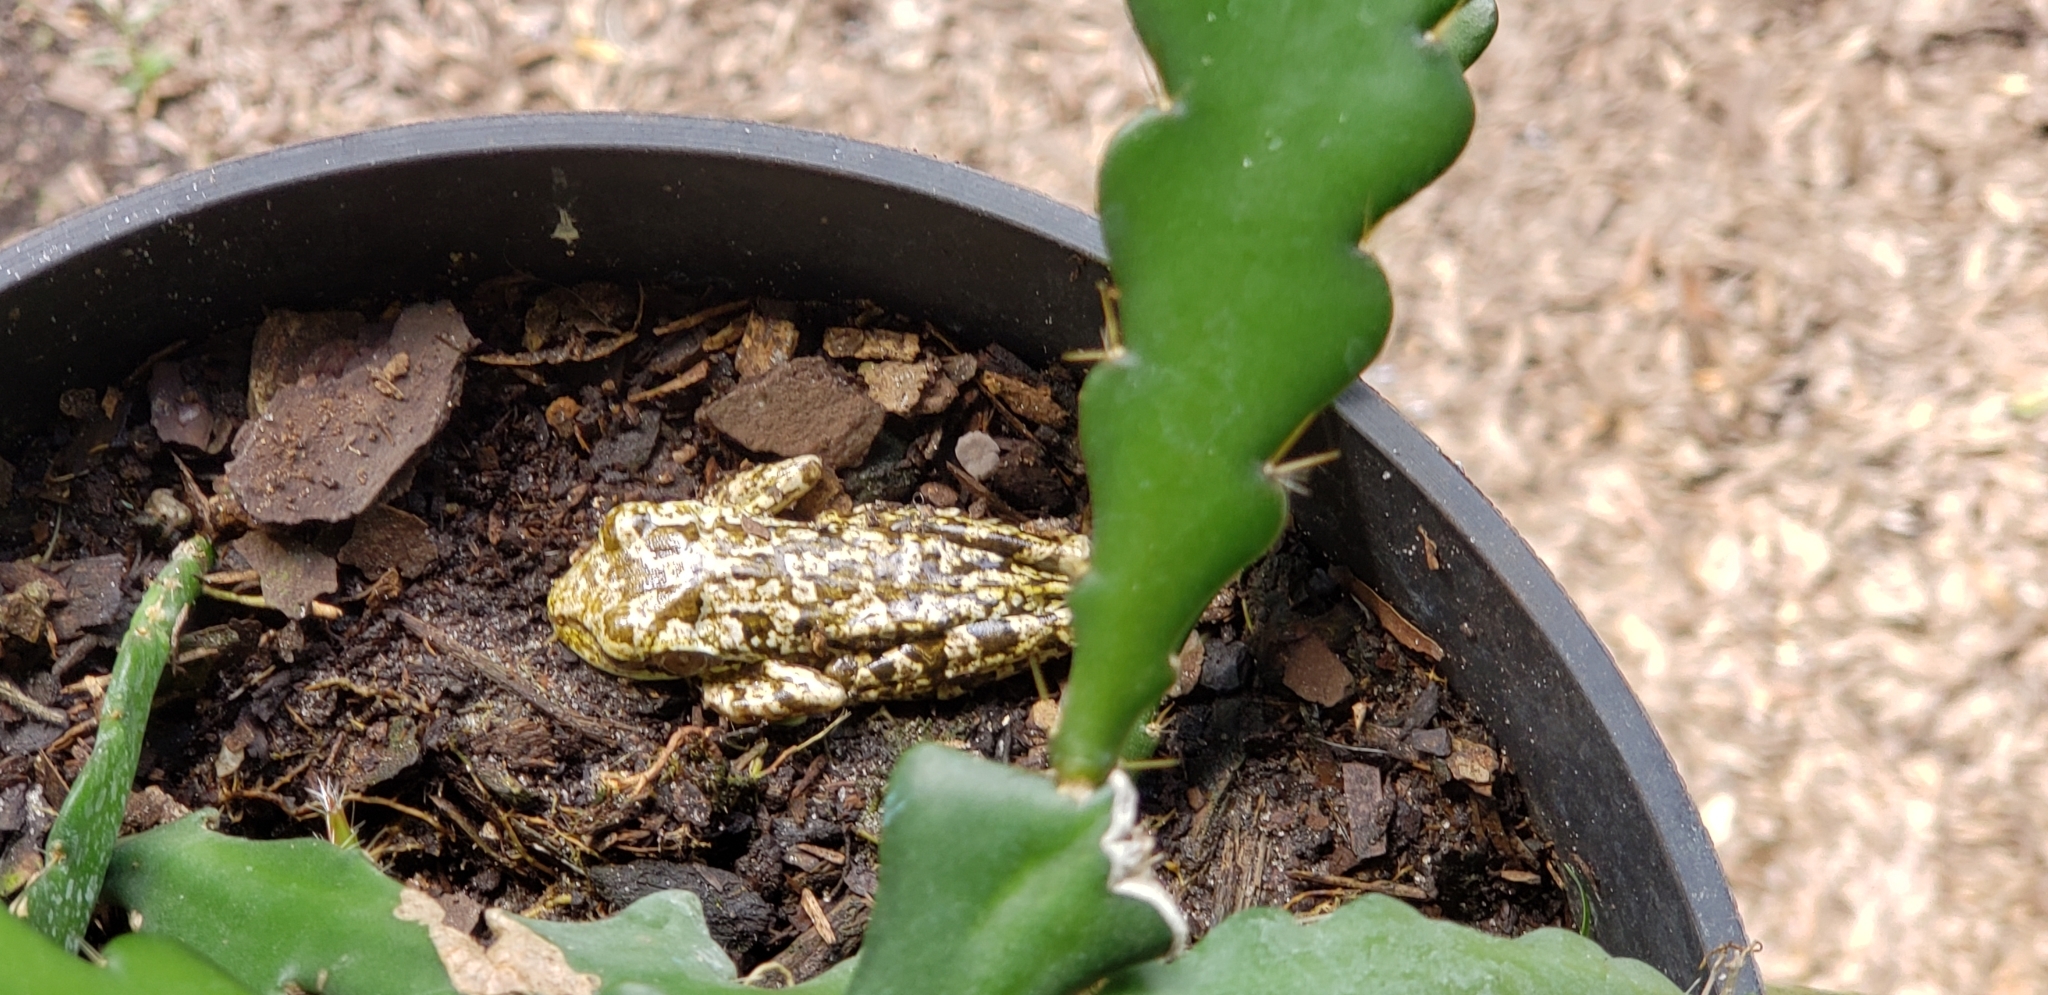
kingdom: Animalia
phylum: Chordata
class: Amphibia
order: Anura
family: Hylidae
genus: Osteopilus
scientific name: Osteopilus septentrionalis
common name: Cuban treefrog
